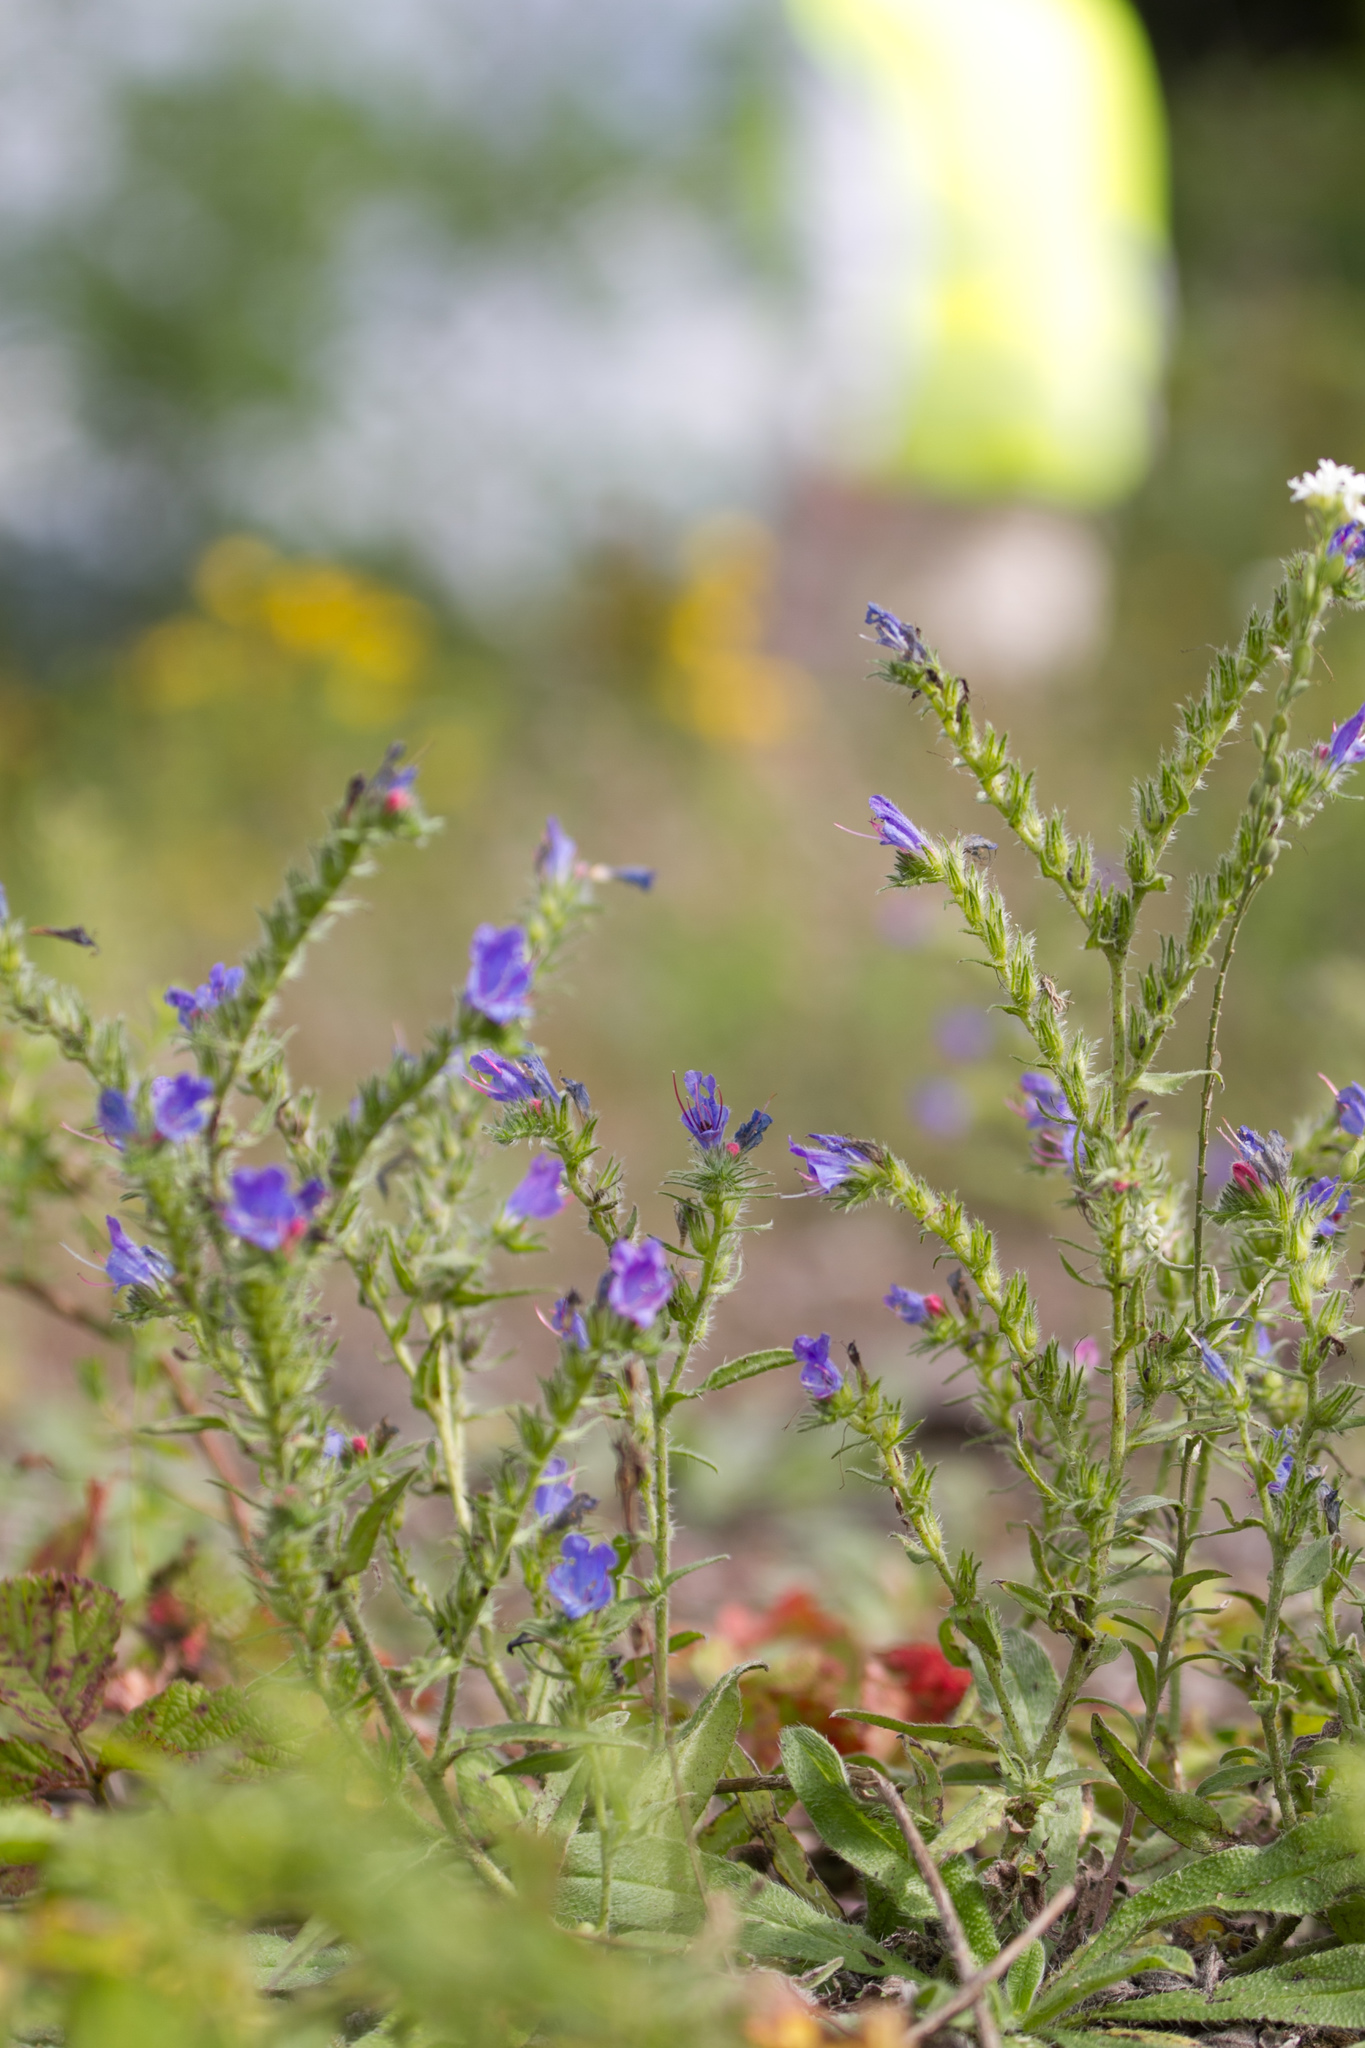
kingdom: Plantae
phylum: Tracheophyta
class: Magnoliopsida
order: Boraginales
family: Boraginaceae
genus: Echium
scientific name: Echium vulgare
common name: Common viper's bugloss
